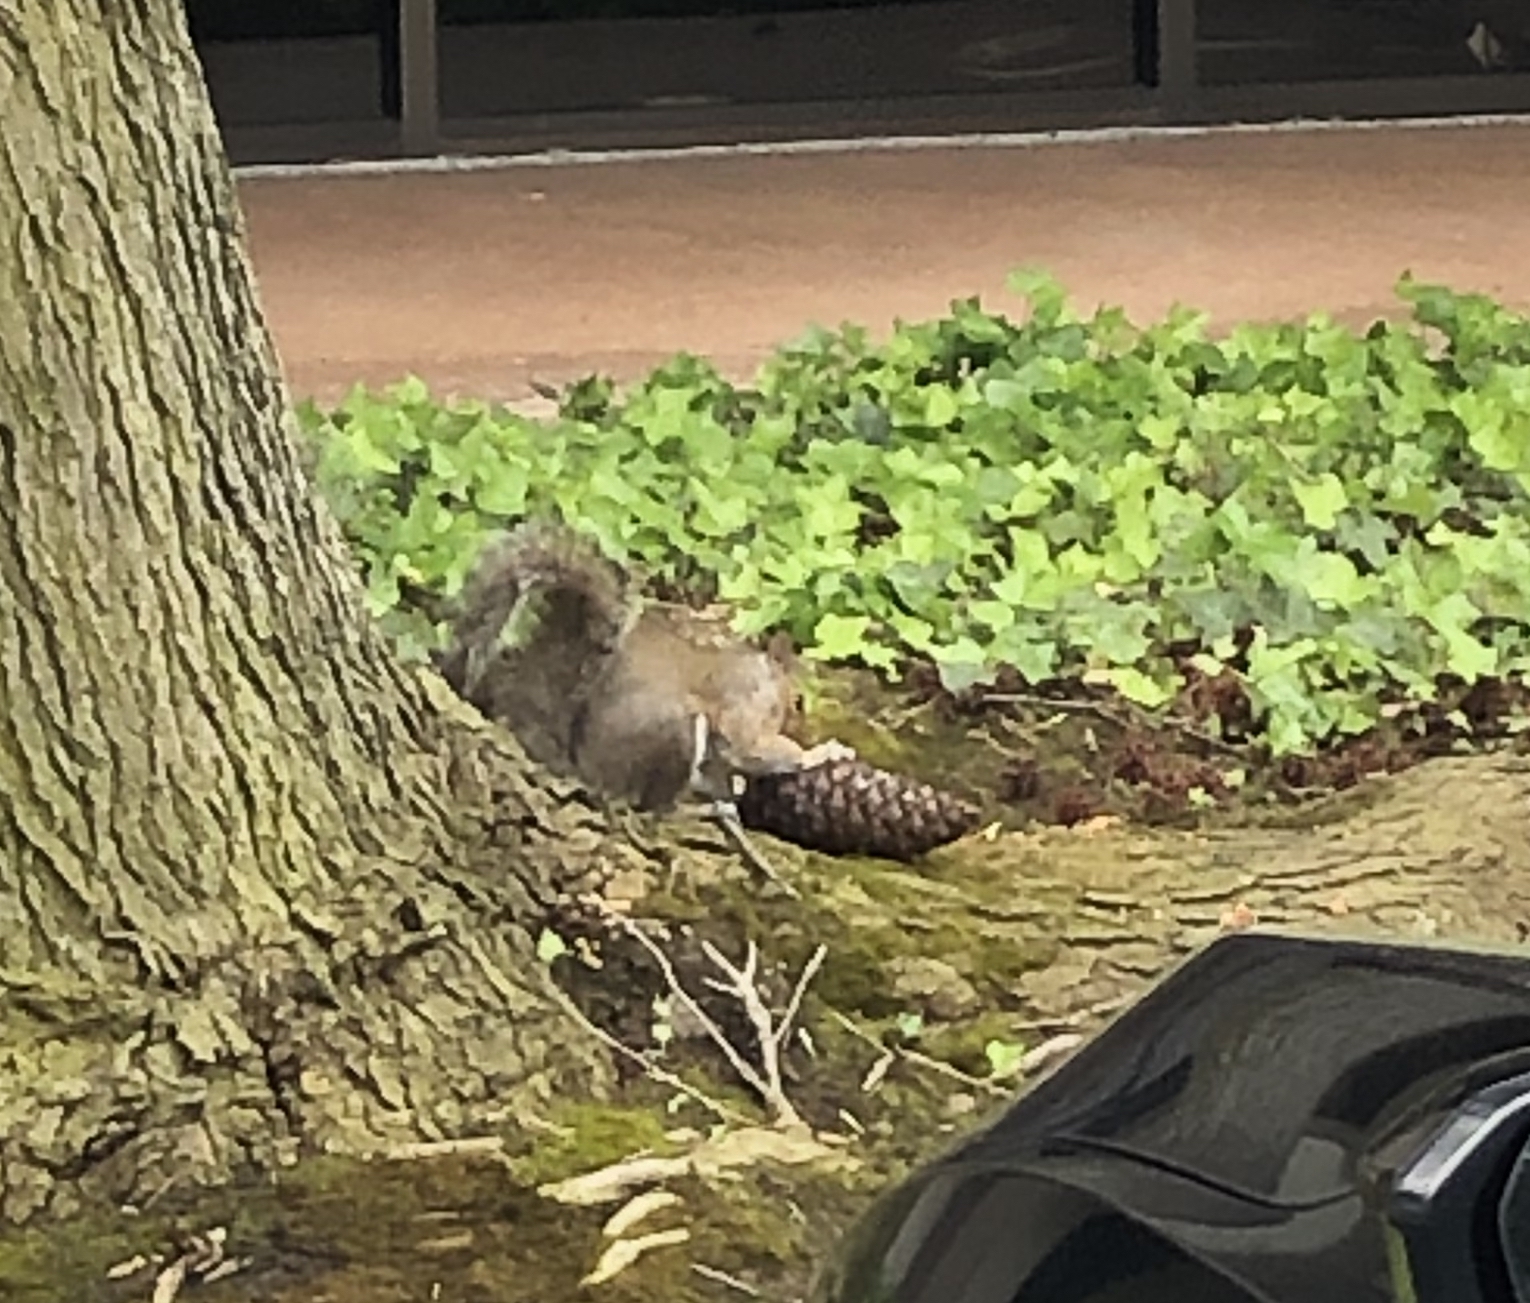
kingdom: Animalia
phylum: Chordata
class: Mammalia
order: Rodentia
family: Sciuridae
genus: Sciurus
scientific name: Sciurus carolinensis
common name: Eastern gray squirrel
